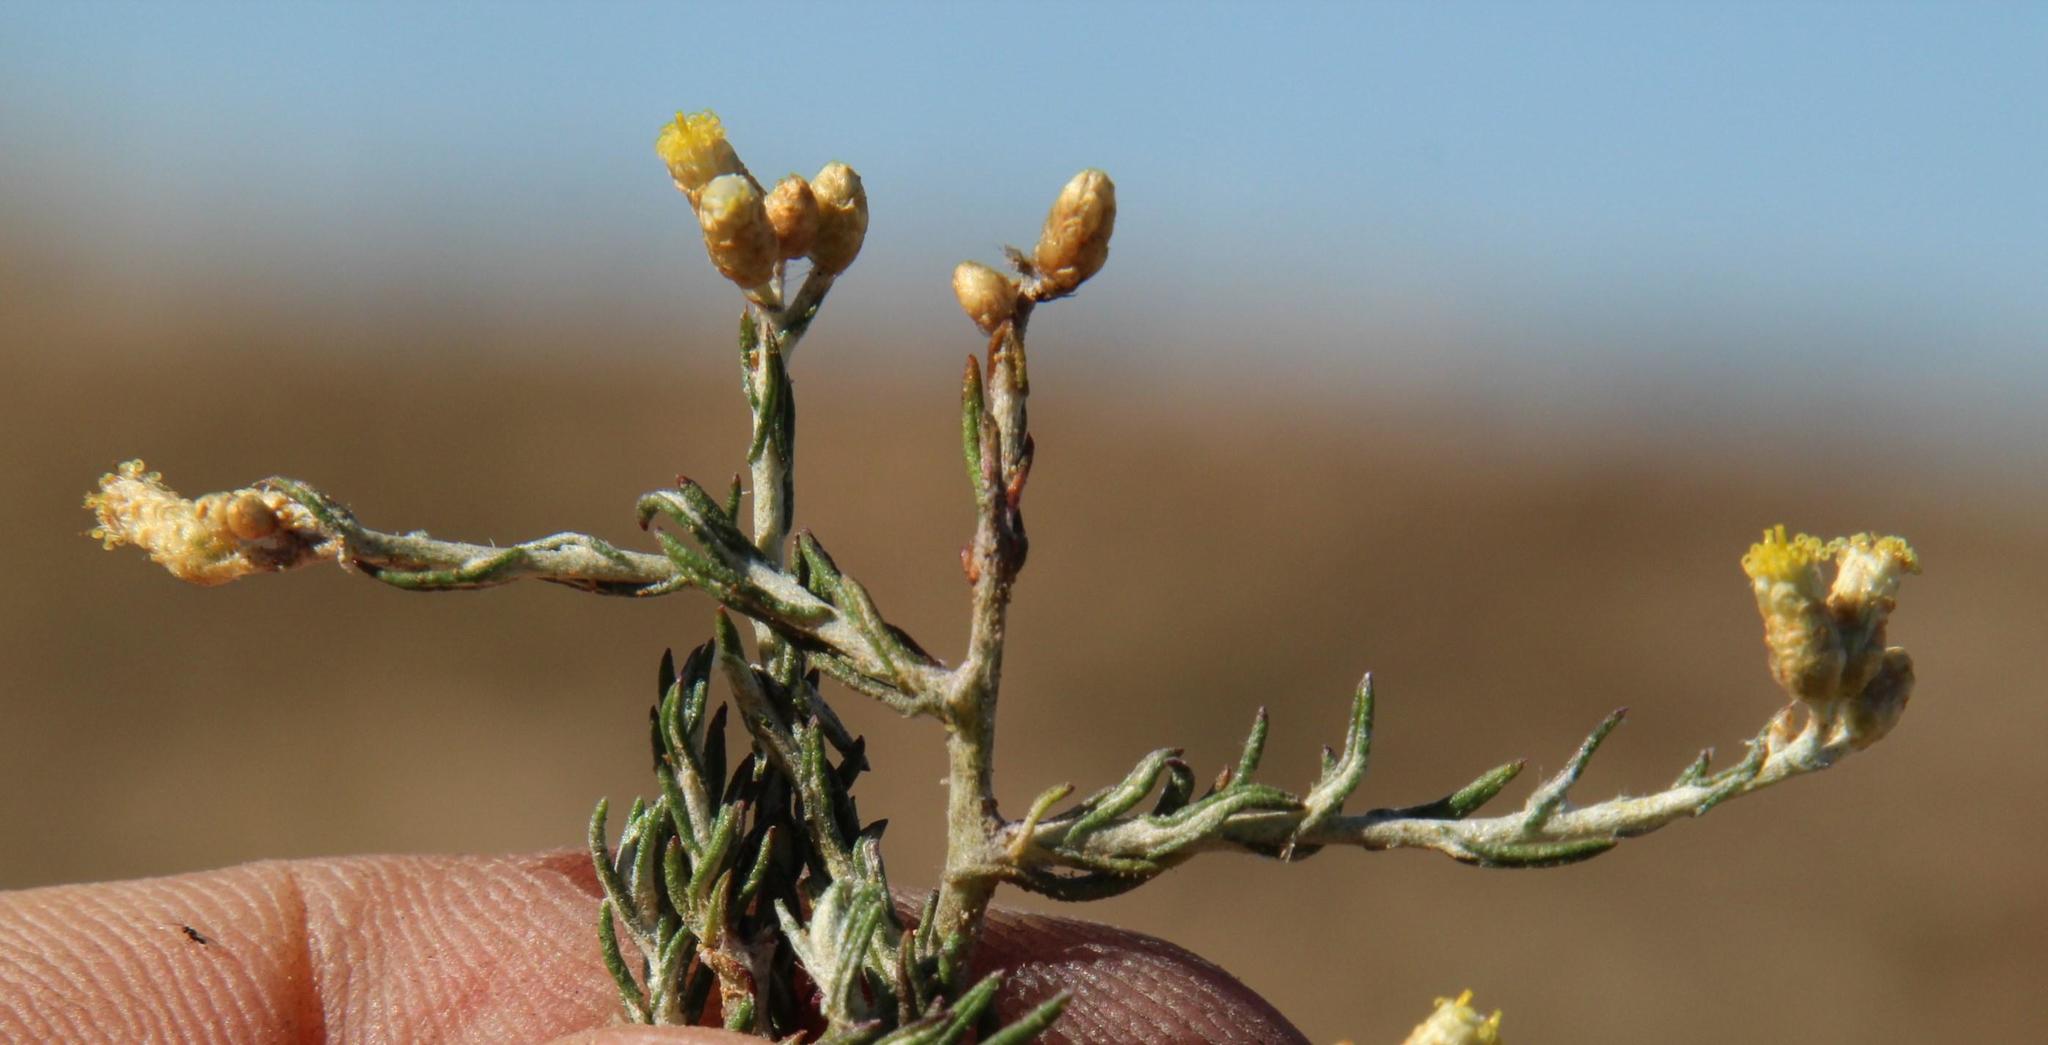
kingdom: Plantae
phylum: Tracheophyta
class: Magnoliopsida
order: Asterales
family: Asteraceae
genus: Helichrysum
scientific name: Helichrysum asperum
